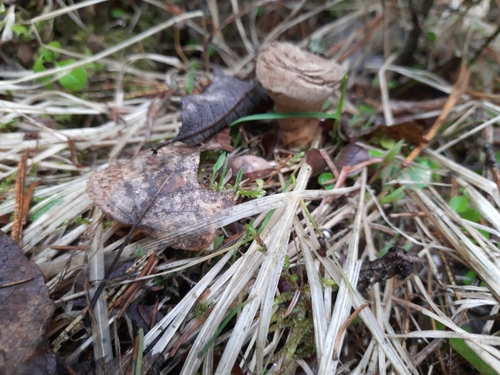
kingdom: Fungi
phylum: Basidiomycota
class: Agaricomycetes
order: Agaricales
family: Lycoperdaceae
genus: Lycoperdon
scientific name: Lycoperdon
